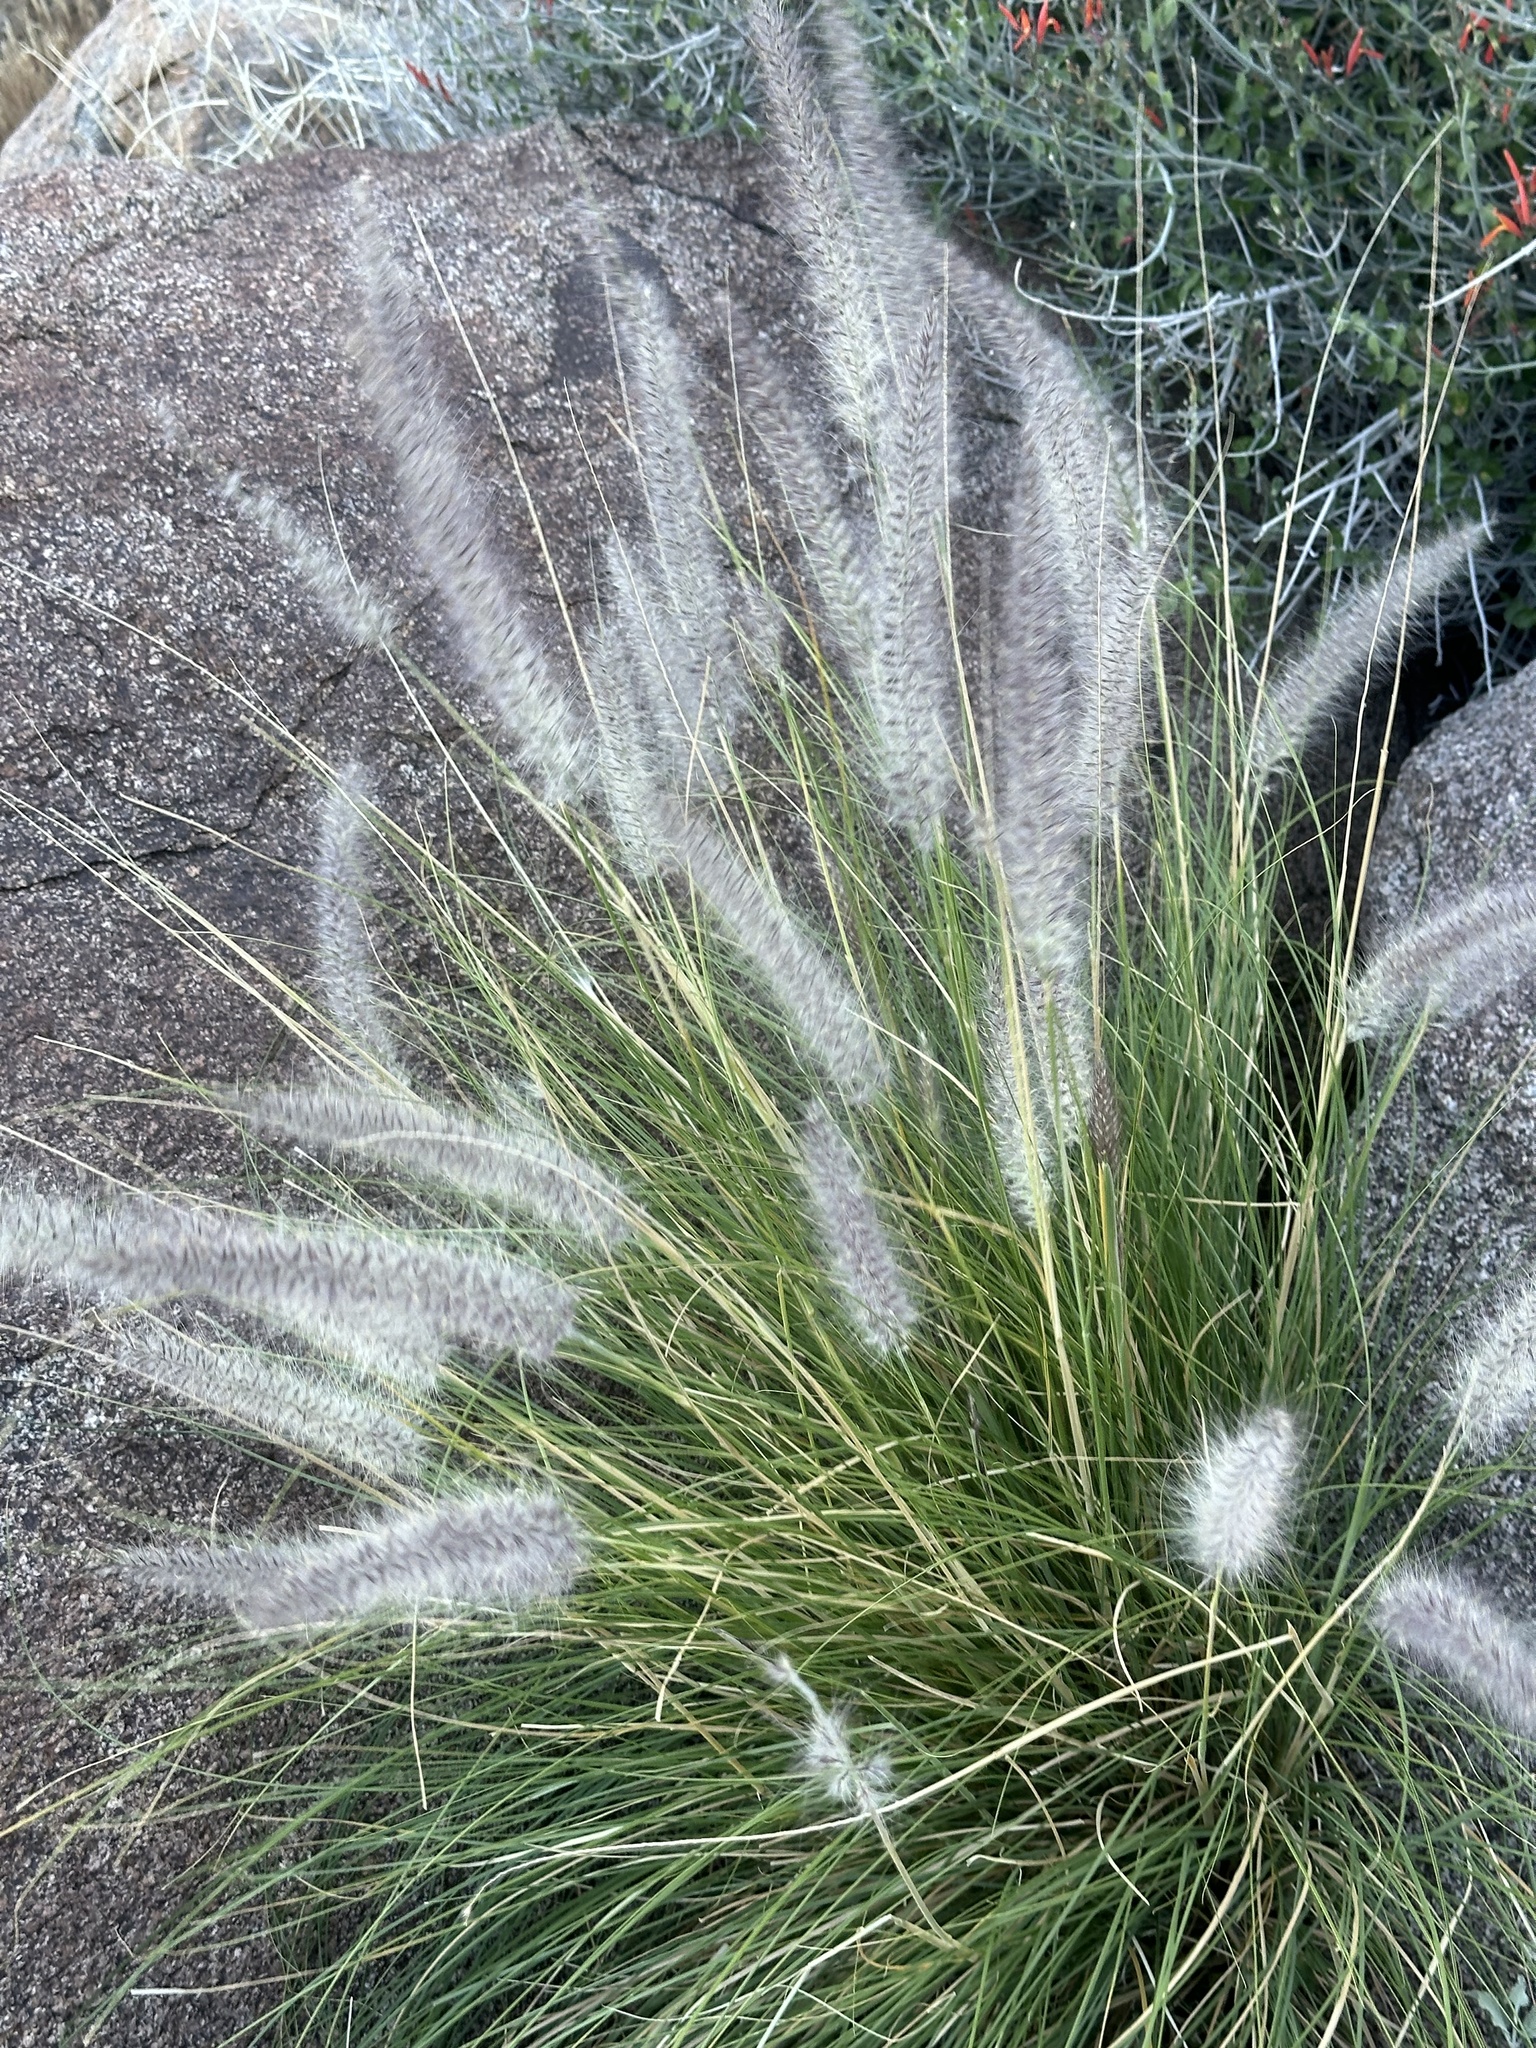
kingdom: Plantae
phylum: Tracheophyta
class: Liliopsida
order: Poales
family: Poaceae
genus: Cenchrus
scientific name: Cenchrus setaceus
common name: Crimson fountaingrass
